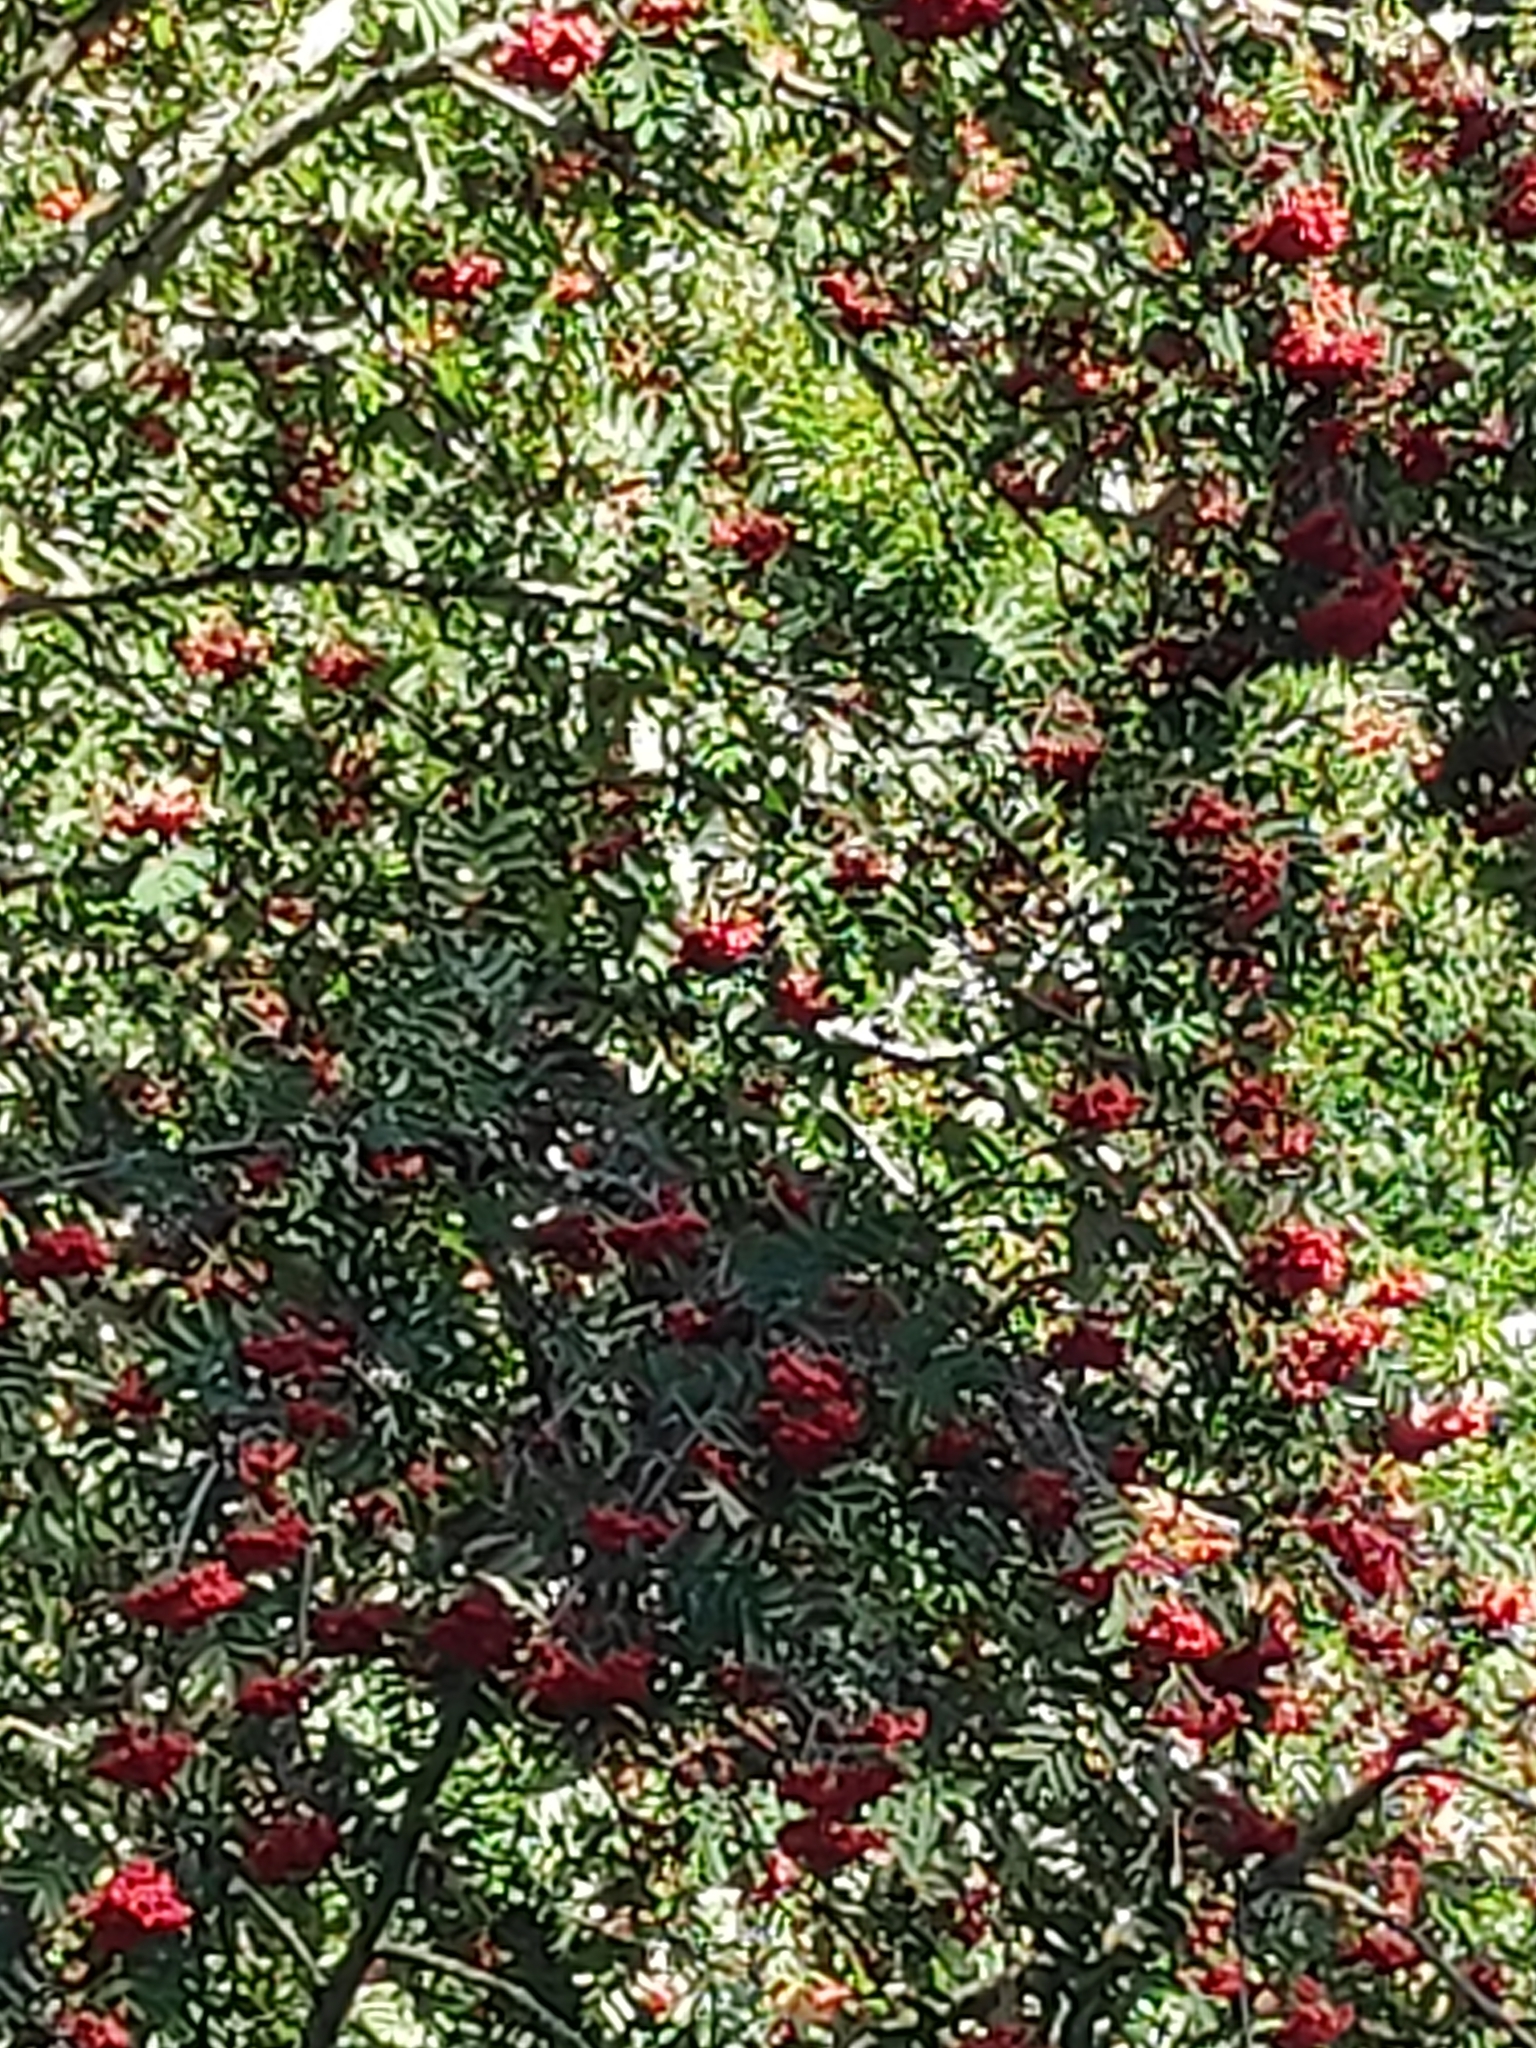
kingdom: Plantae
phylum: Tracheophyta
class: Magnoliopsida
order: Rosales
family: Rosaceae
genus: Sorbus
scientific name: Sorbus aucuparia
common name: Rowan
